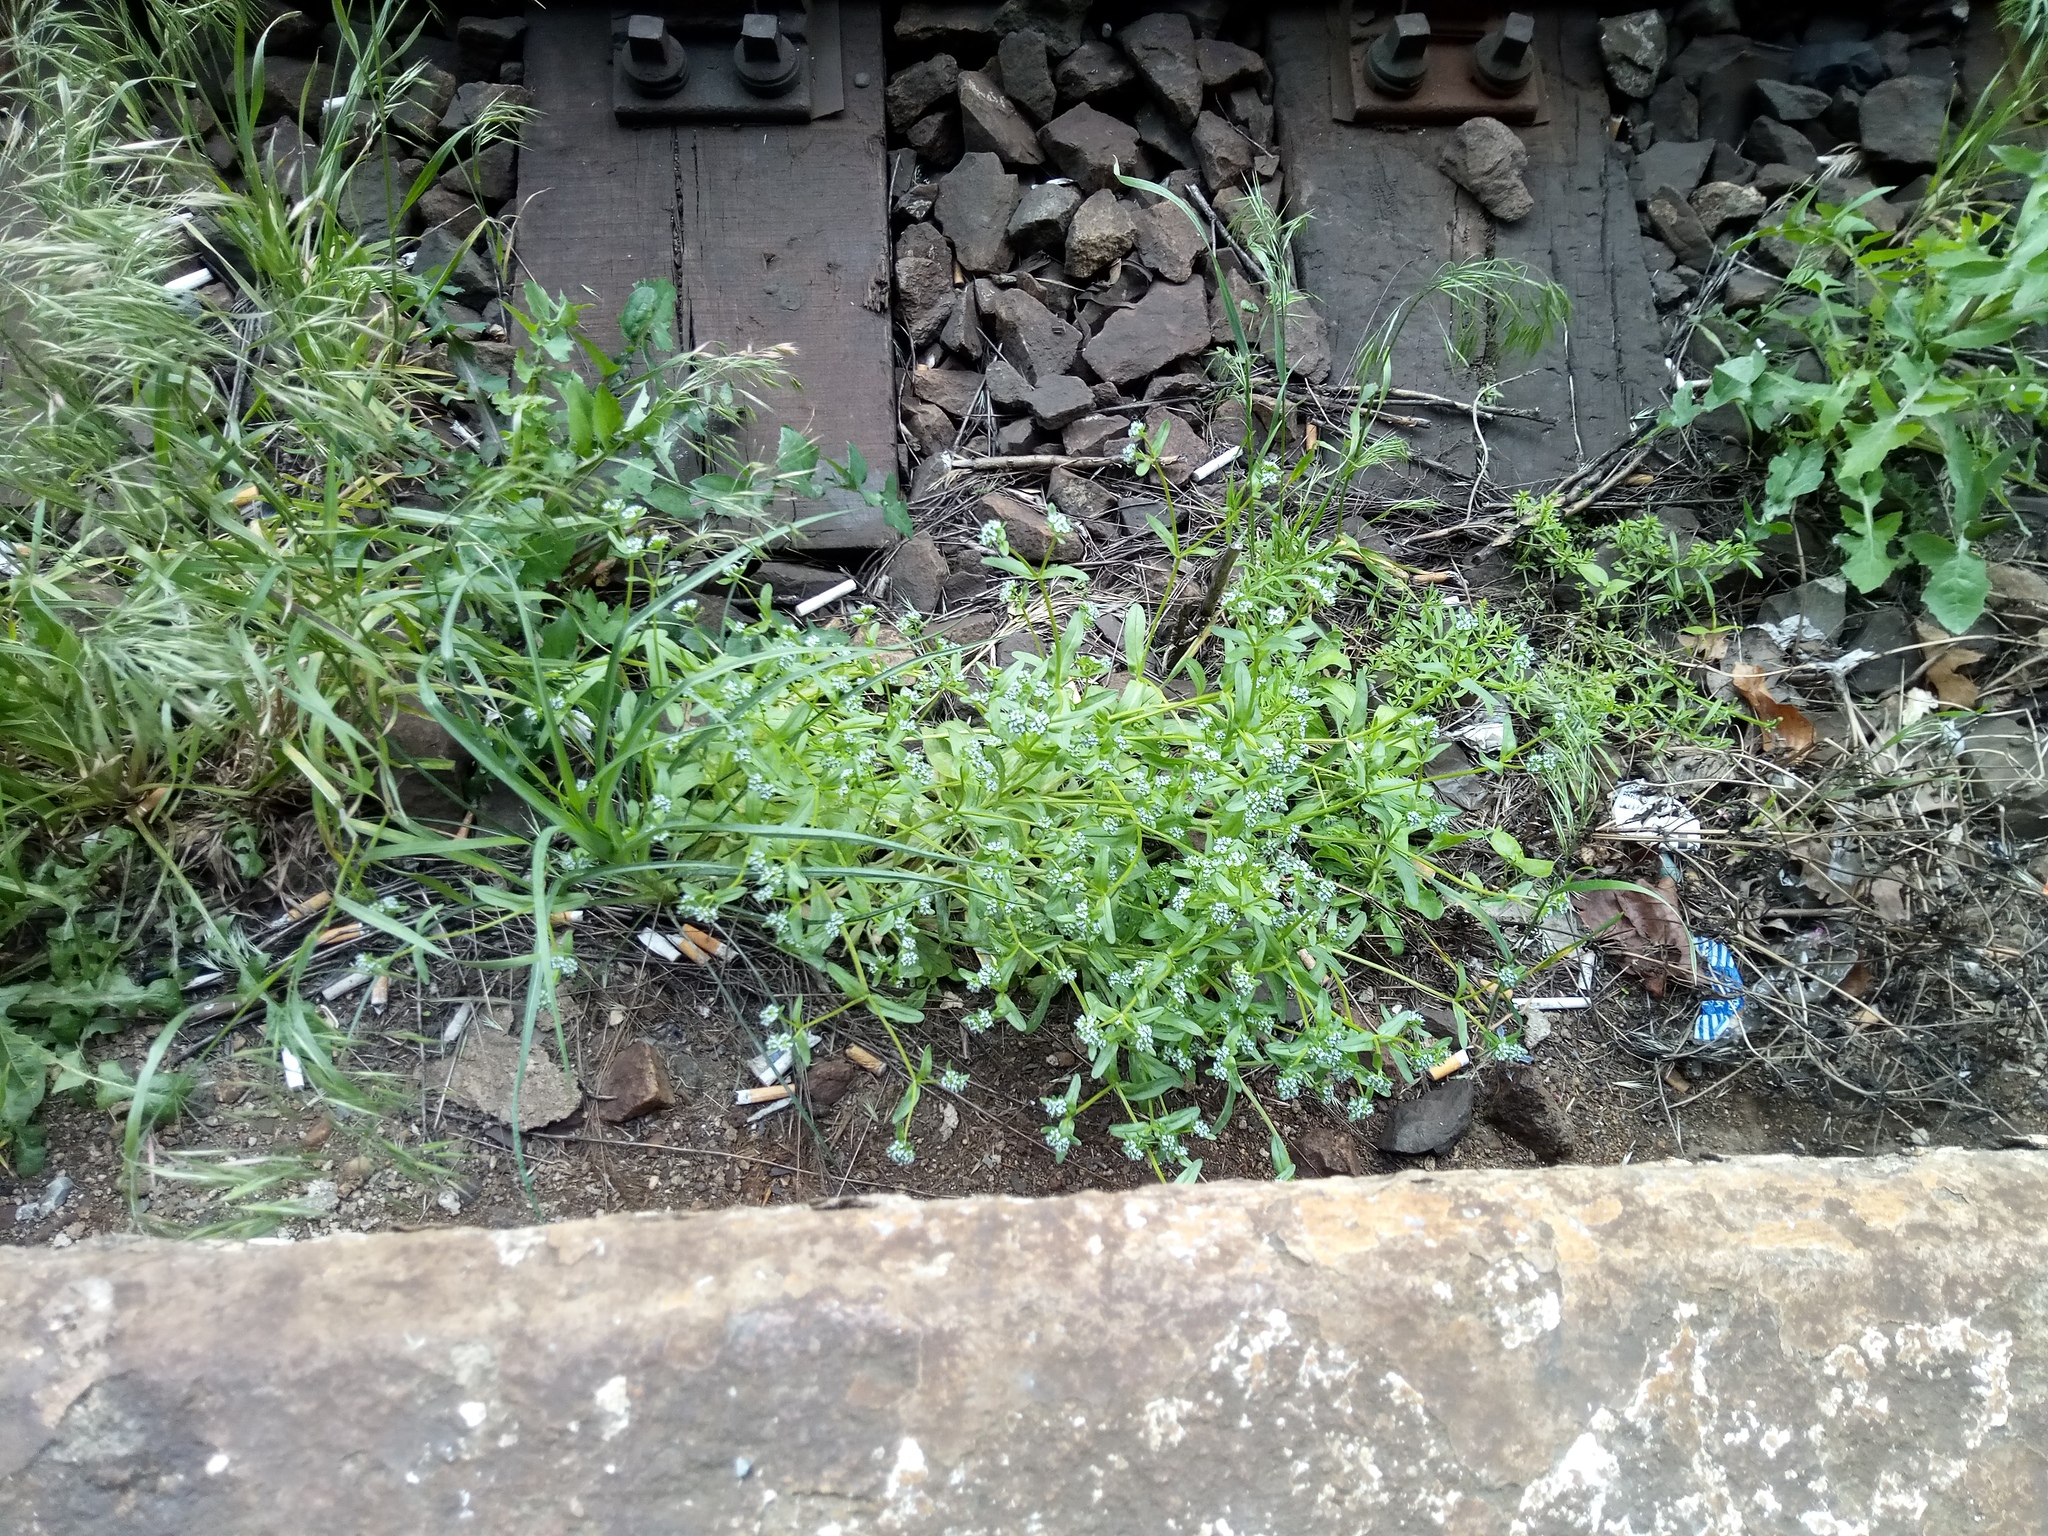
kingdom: Plantae
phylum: Tracheophyta
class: Magnoliopsida
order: Dipsacales
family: Caprifoliaceae
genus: Valerianella
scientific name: Valerianella locusta
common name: Common cornsalad
